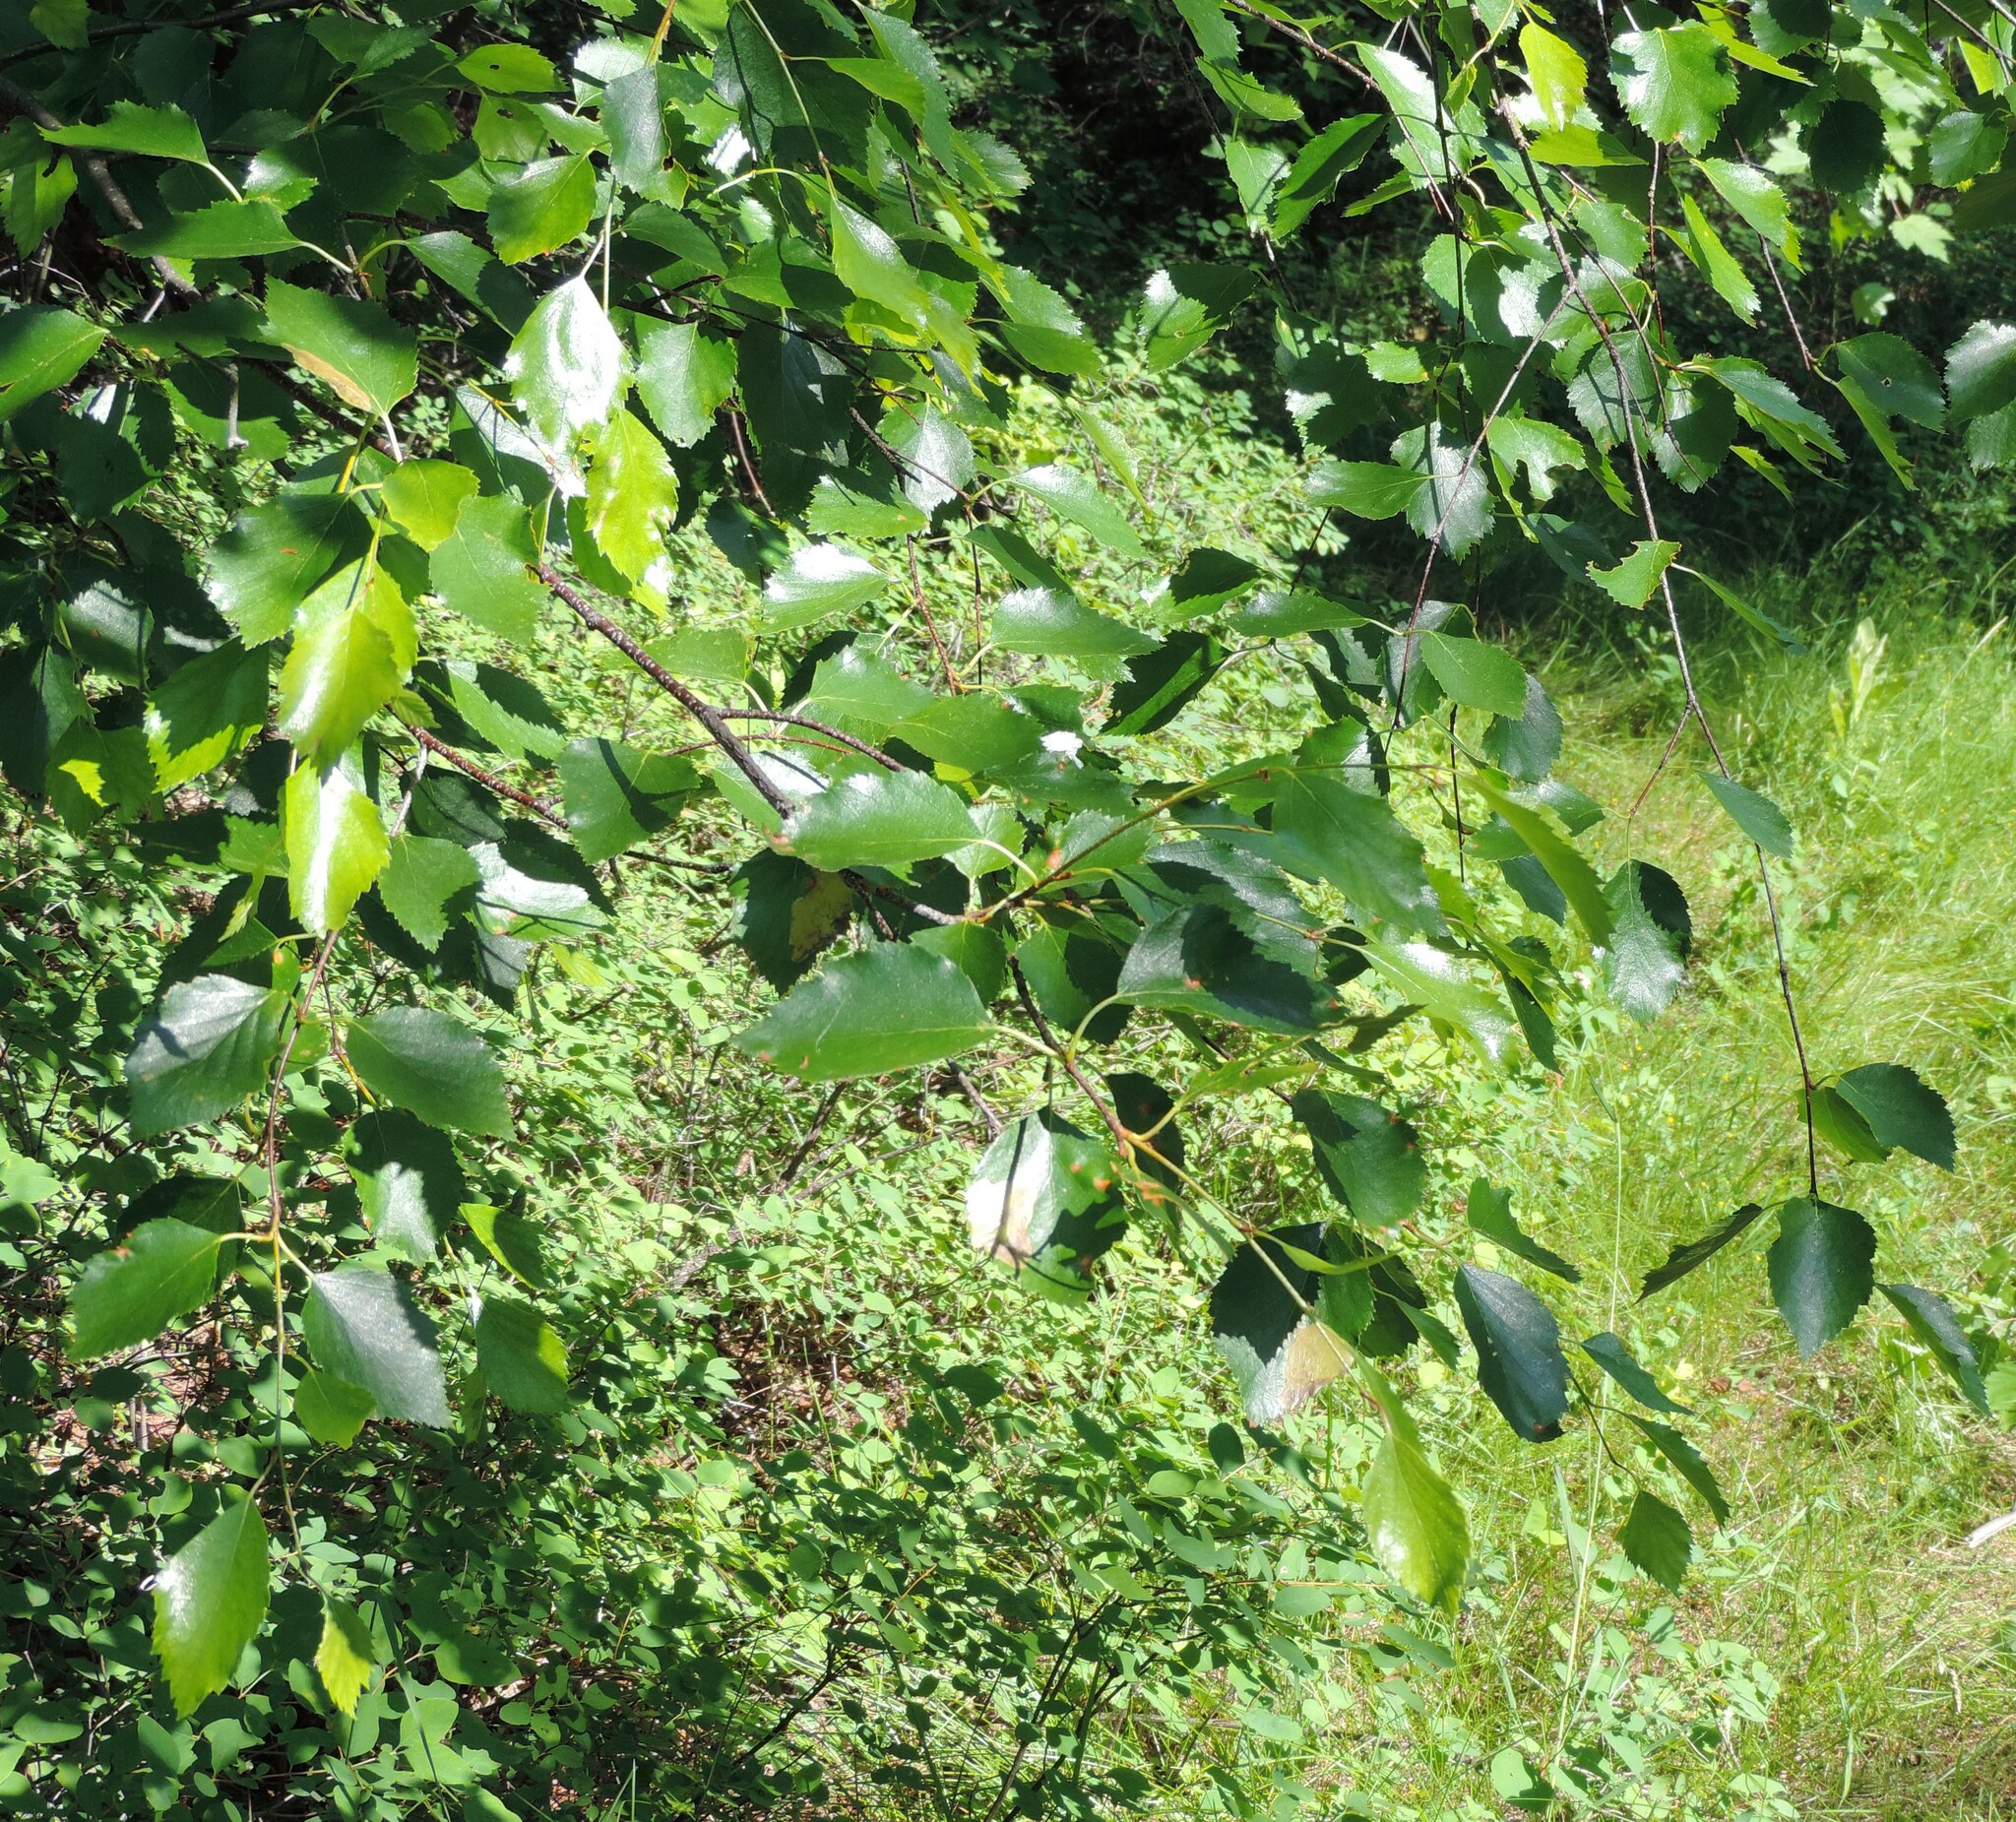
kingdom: Plantae
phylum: Tracheophyta
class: Magnoliopsida
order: Fagales
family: Betulaceae
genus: Betula
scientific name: Betula occidentalis
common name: River birch
